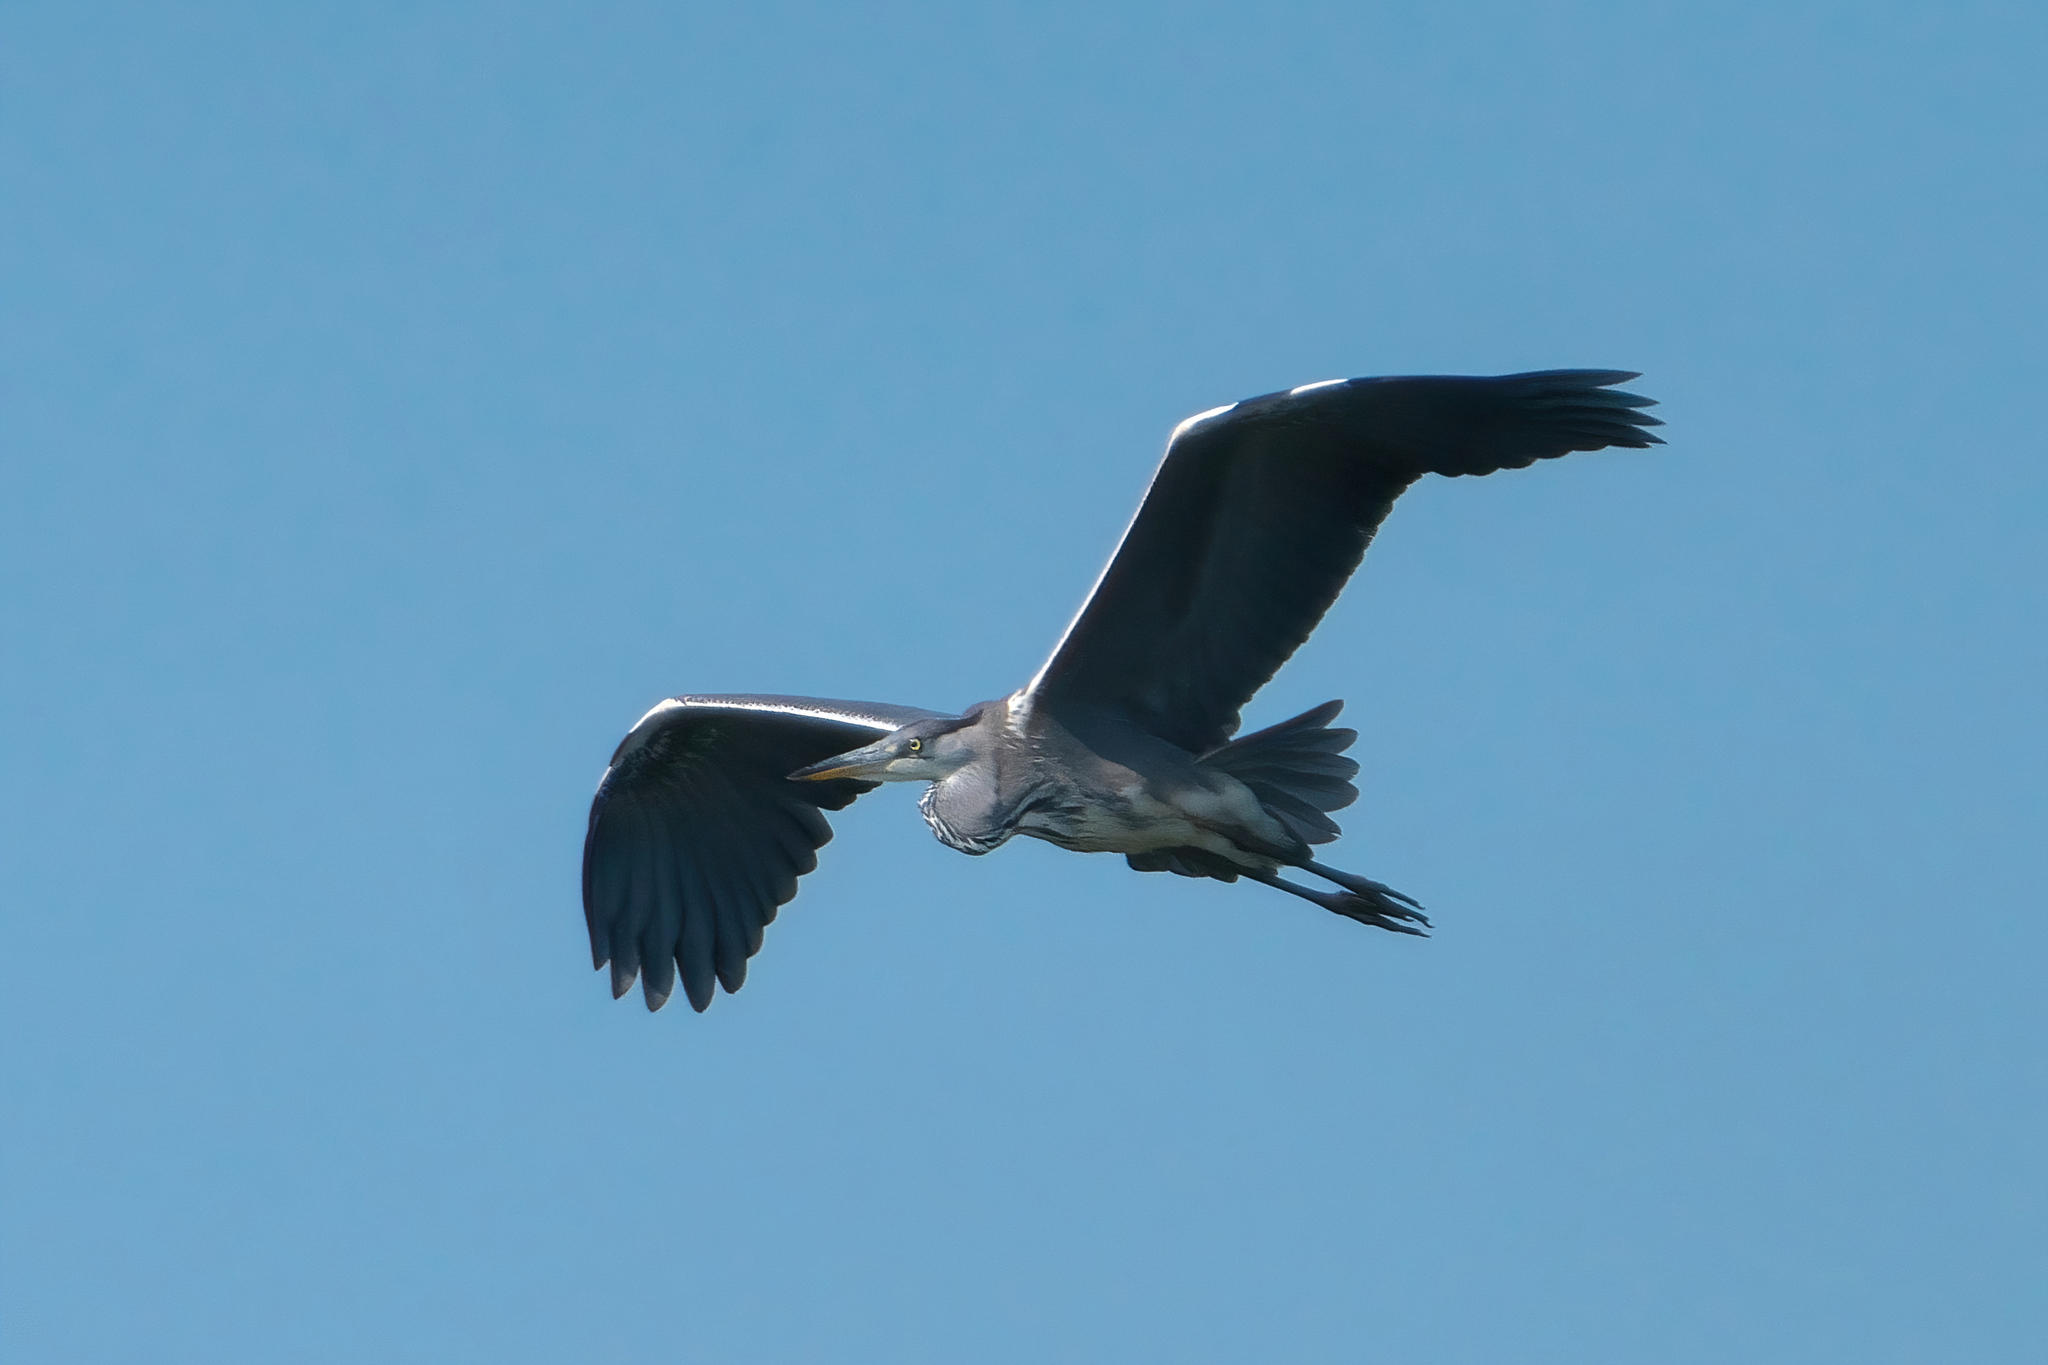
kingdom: Animalia
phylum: Chordata
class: Aves
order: Pelecaniformes
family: Ardeidae
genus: Ardea
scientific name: Ardea cinerea
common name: Grey heron
